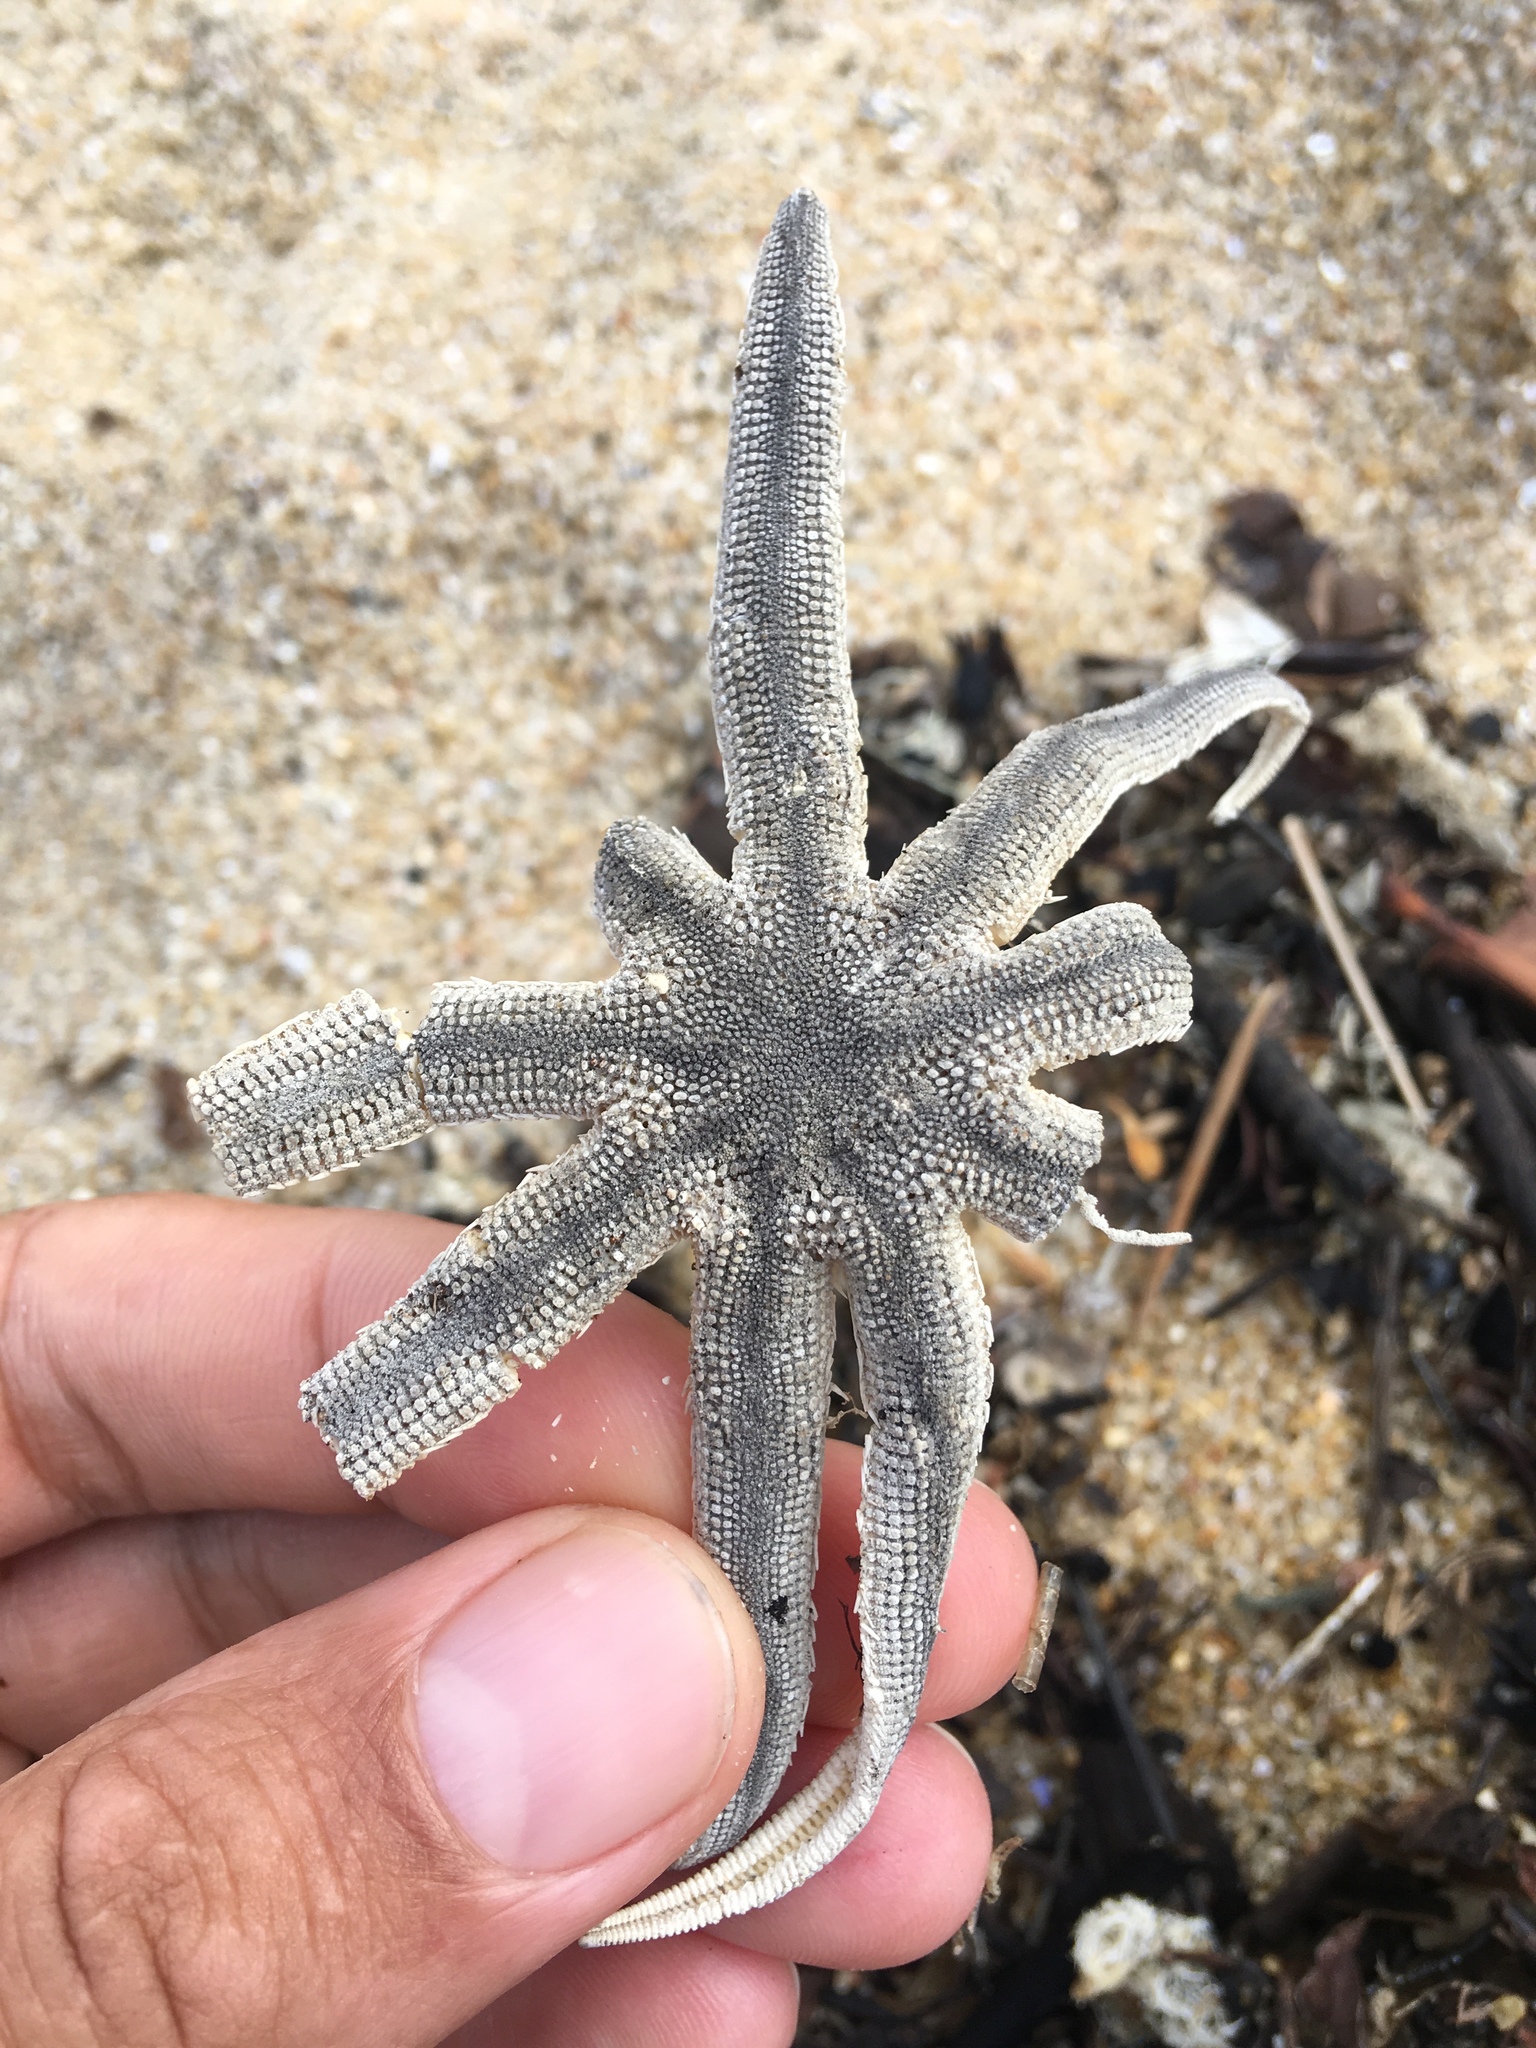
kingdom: Animalia
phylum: Echinodermata
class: Asteroidea
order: Paxillosida
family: Luidiidae
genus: Luidia
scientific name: Luidia senegalensis
